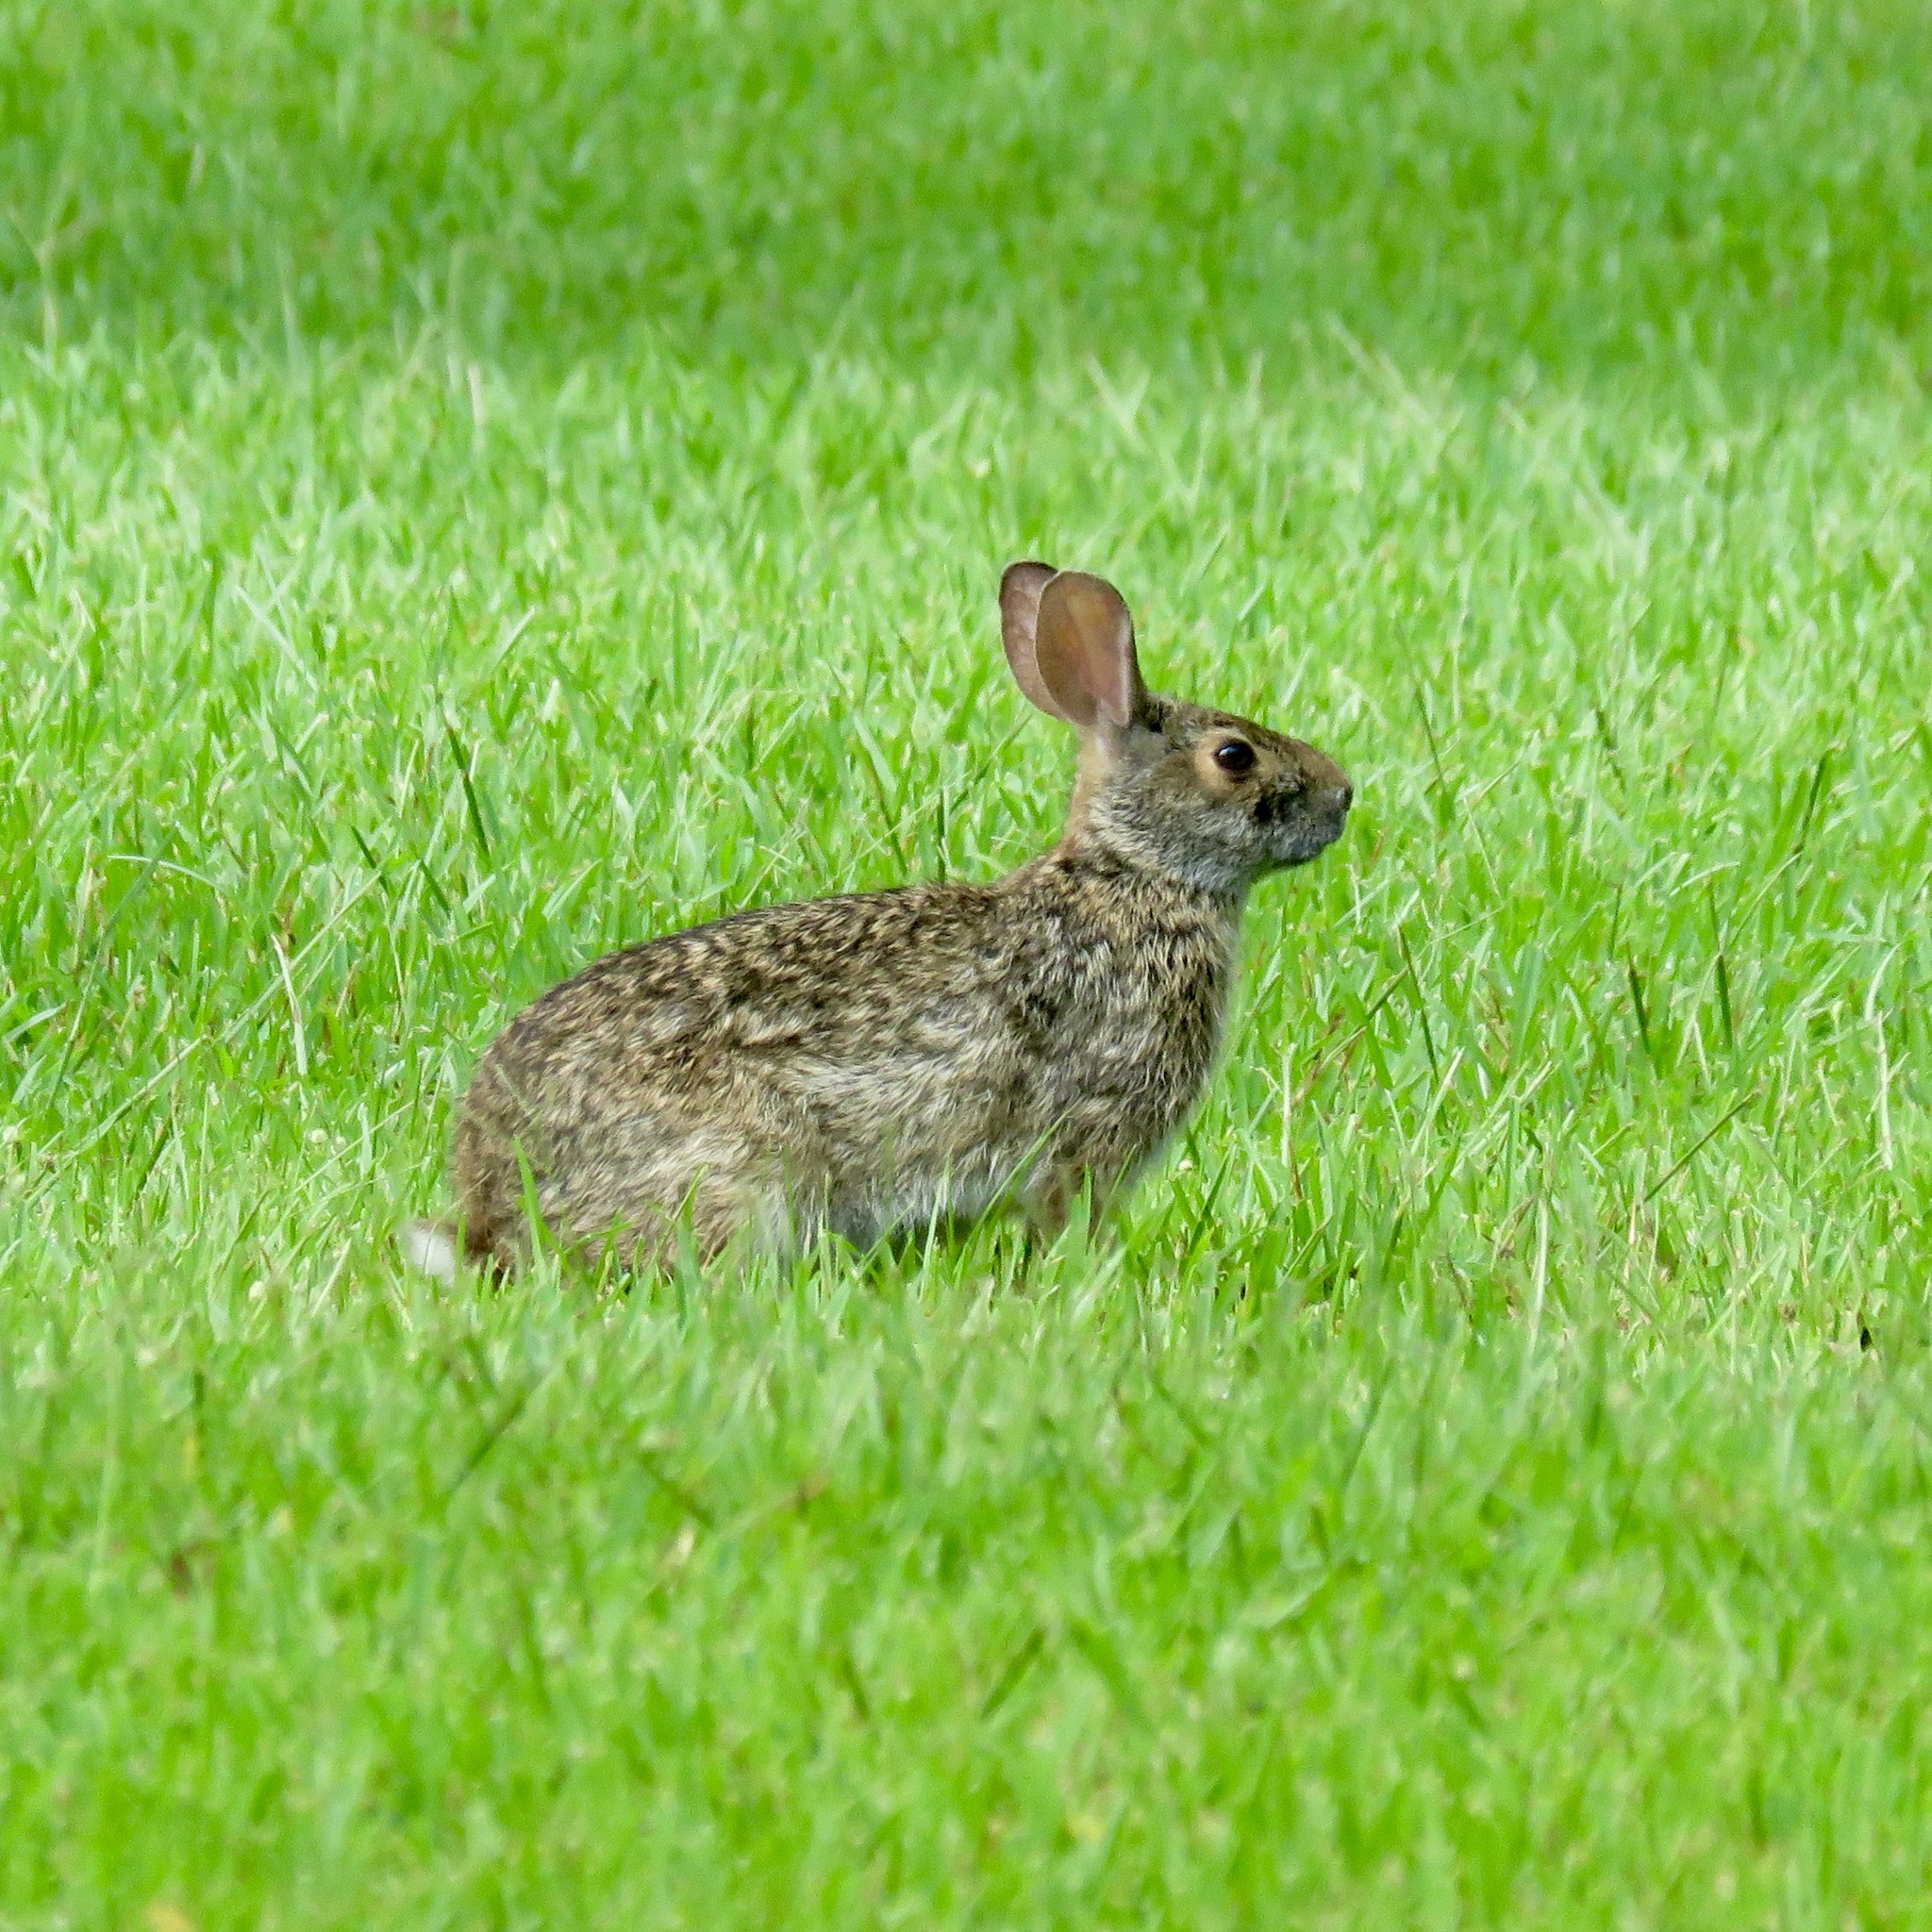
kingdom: Animalia
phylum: Chordata
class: Mammalia
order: Lagomorpha
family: Leporidae
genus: Sylvilagus
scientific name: Sylvilagus floridanus
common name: Eastern cottontail
